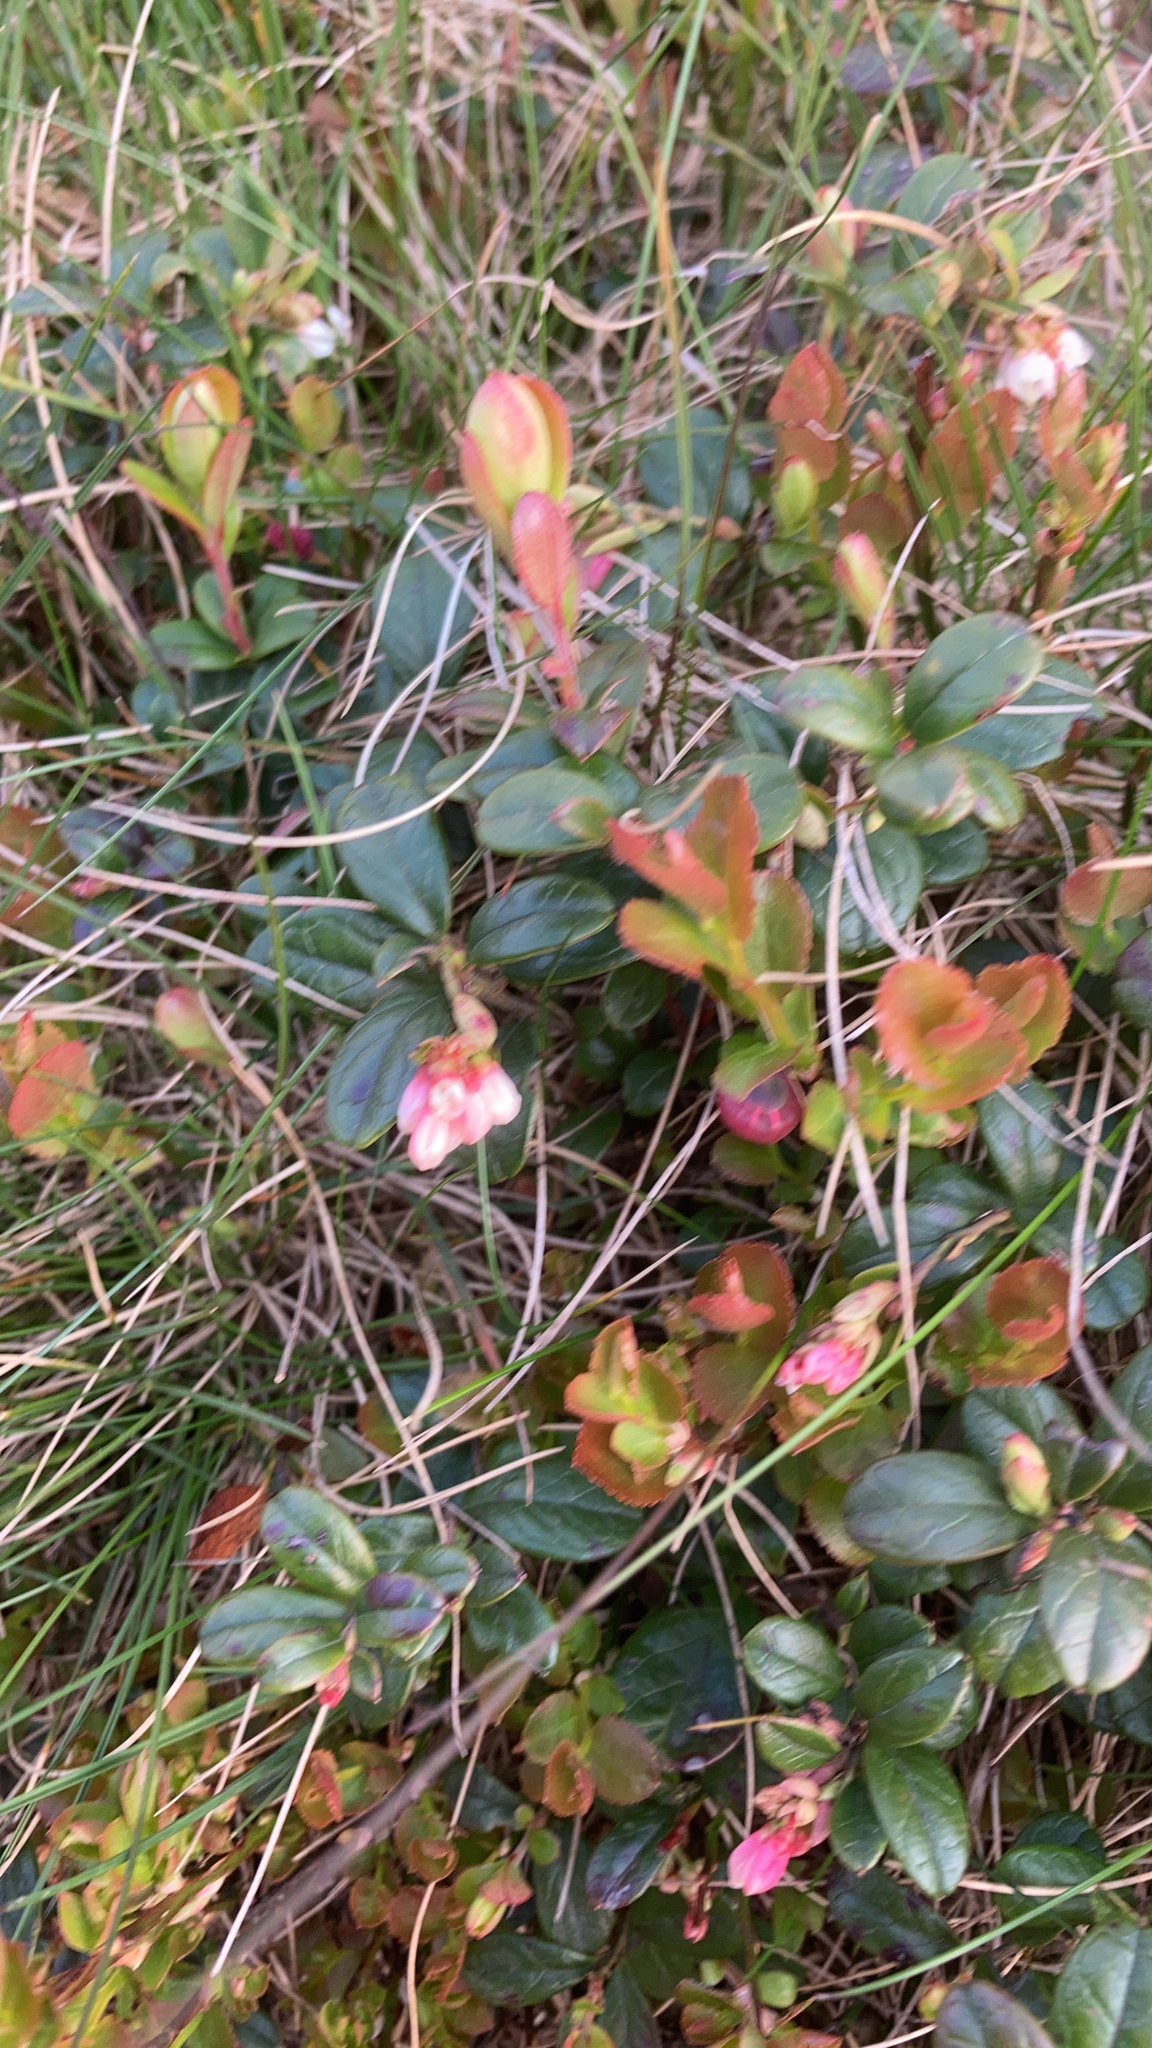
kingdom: Plantae
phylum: Tracheophyta
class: Magnoliopsida
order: Ericales
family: Ericaceae
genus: Vaccinium
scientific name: Vaccinium vitis-idaea
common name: Cowberry
